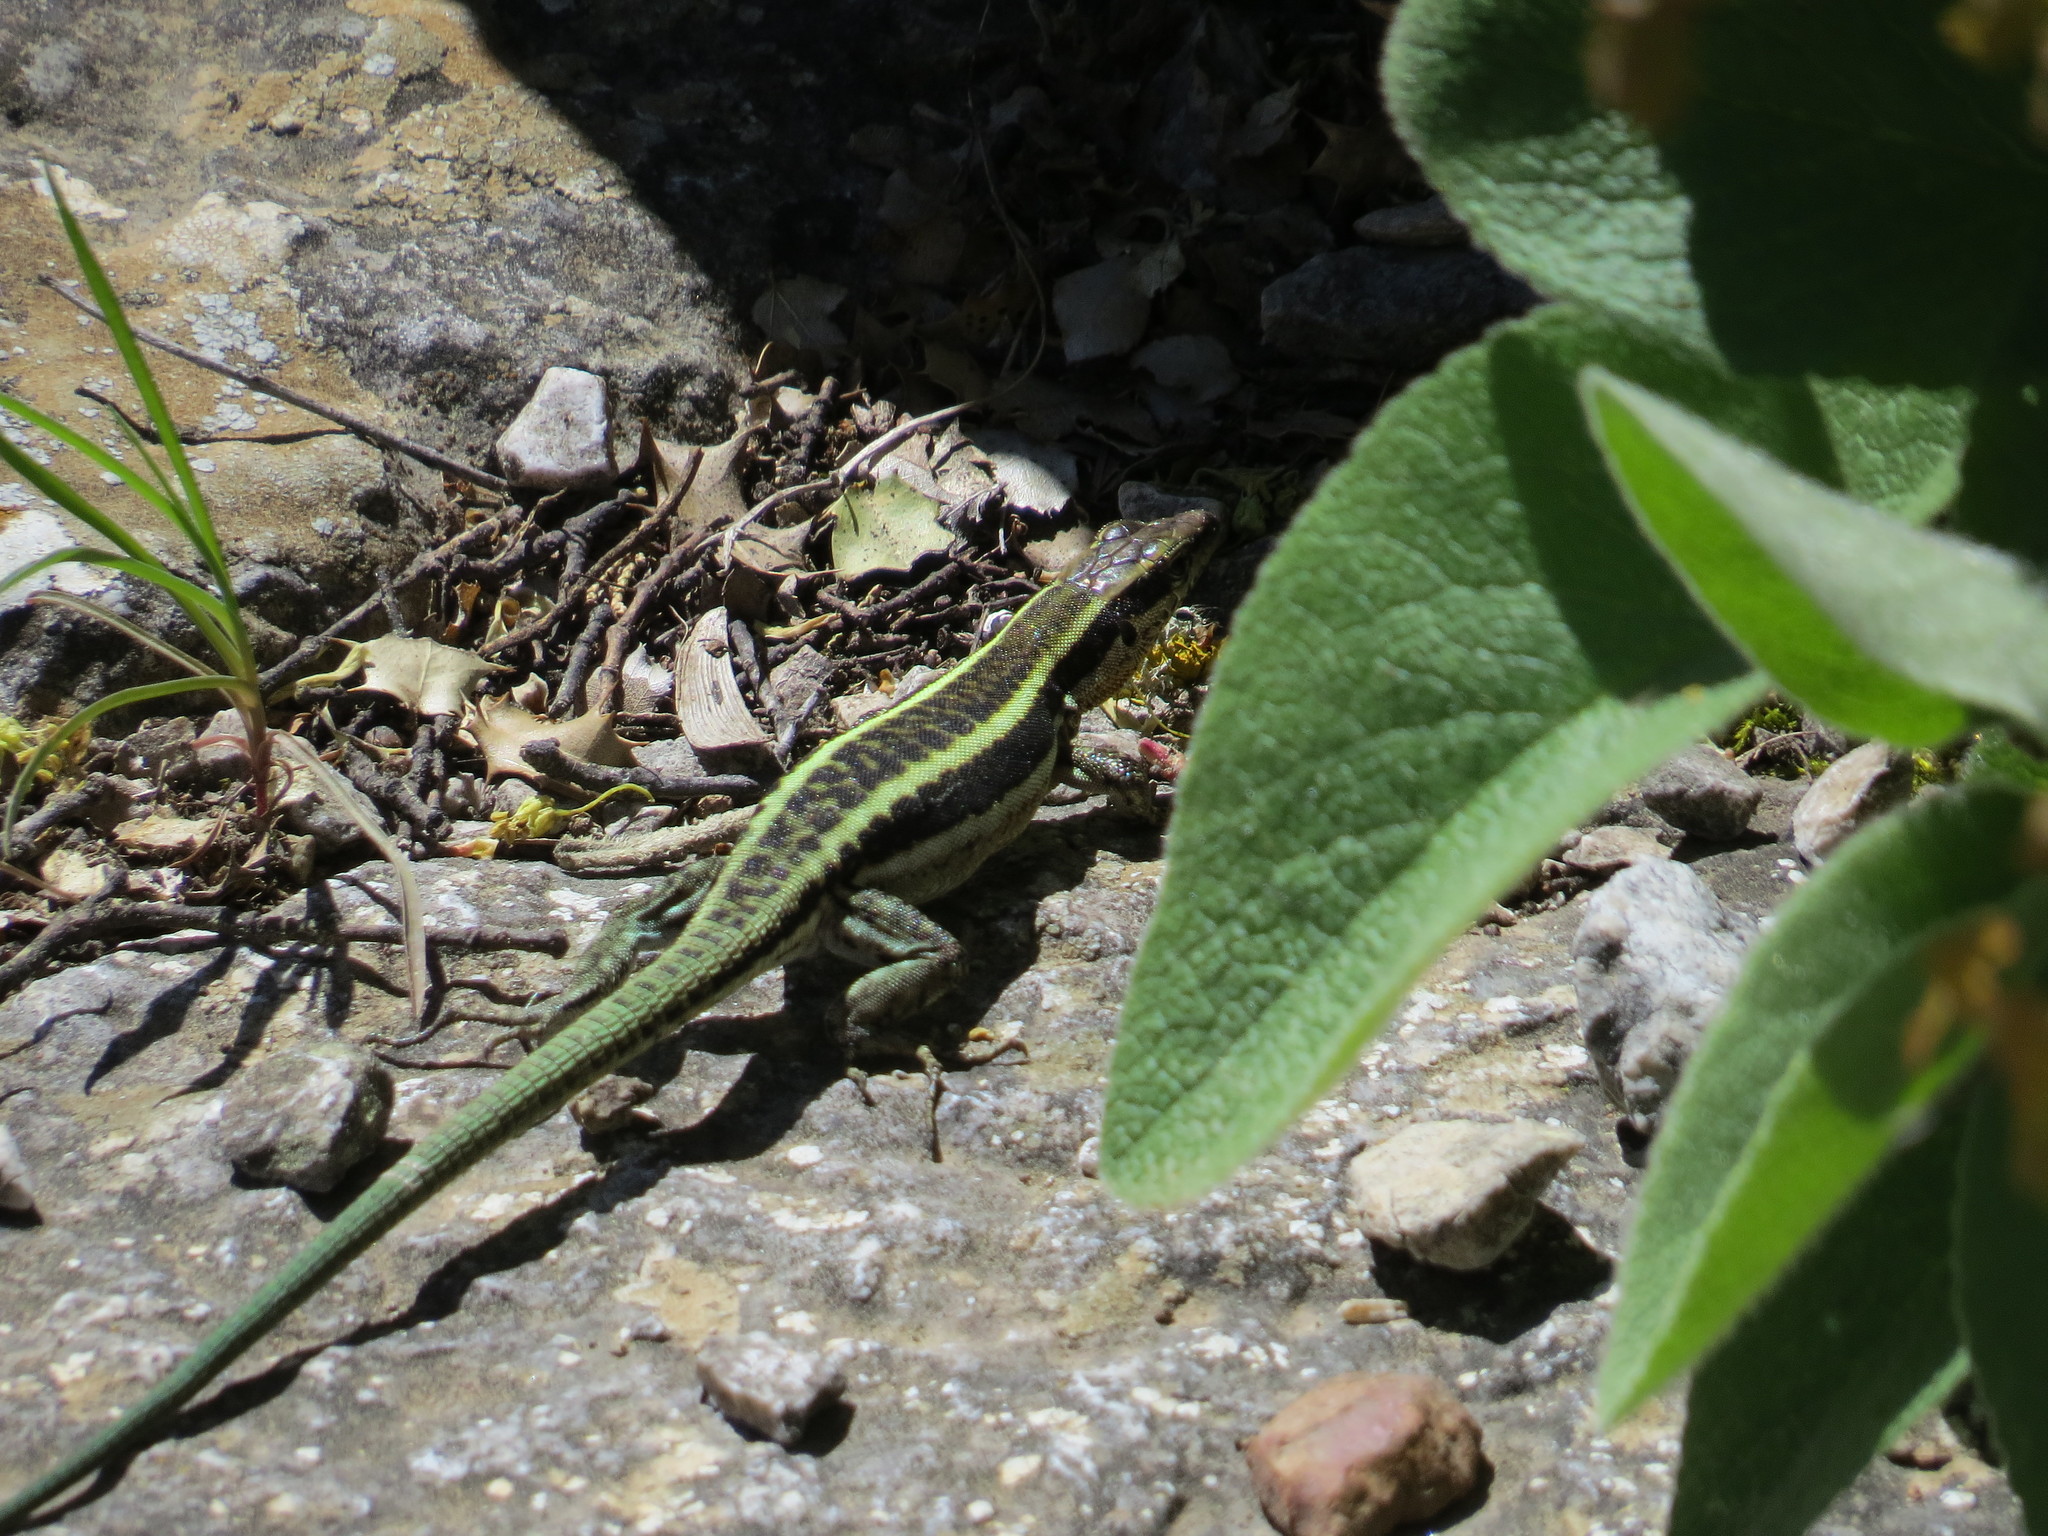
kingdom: Animalia
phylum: Chordata
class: Squamata
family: Lacertidae
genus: Anatololacerta
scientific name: Anatololacerta finikensis
